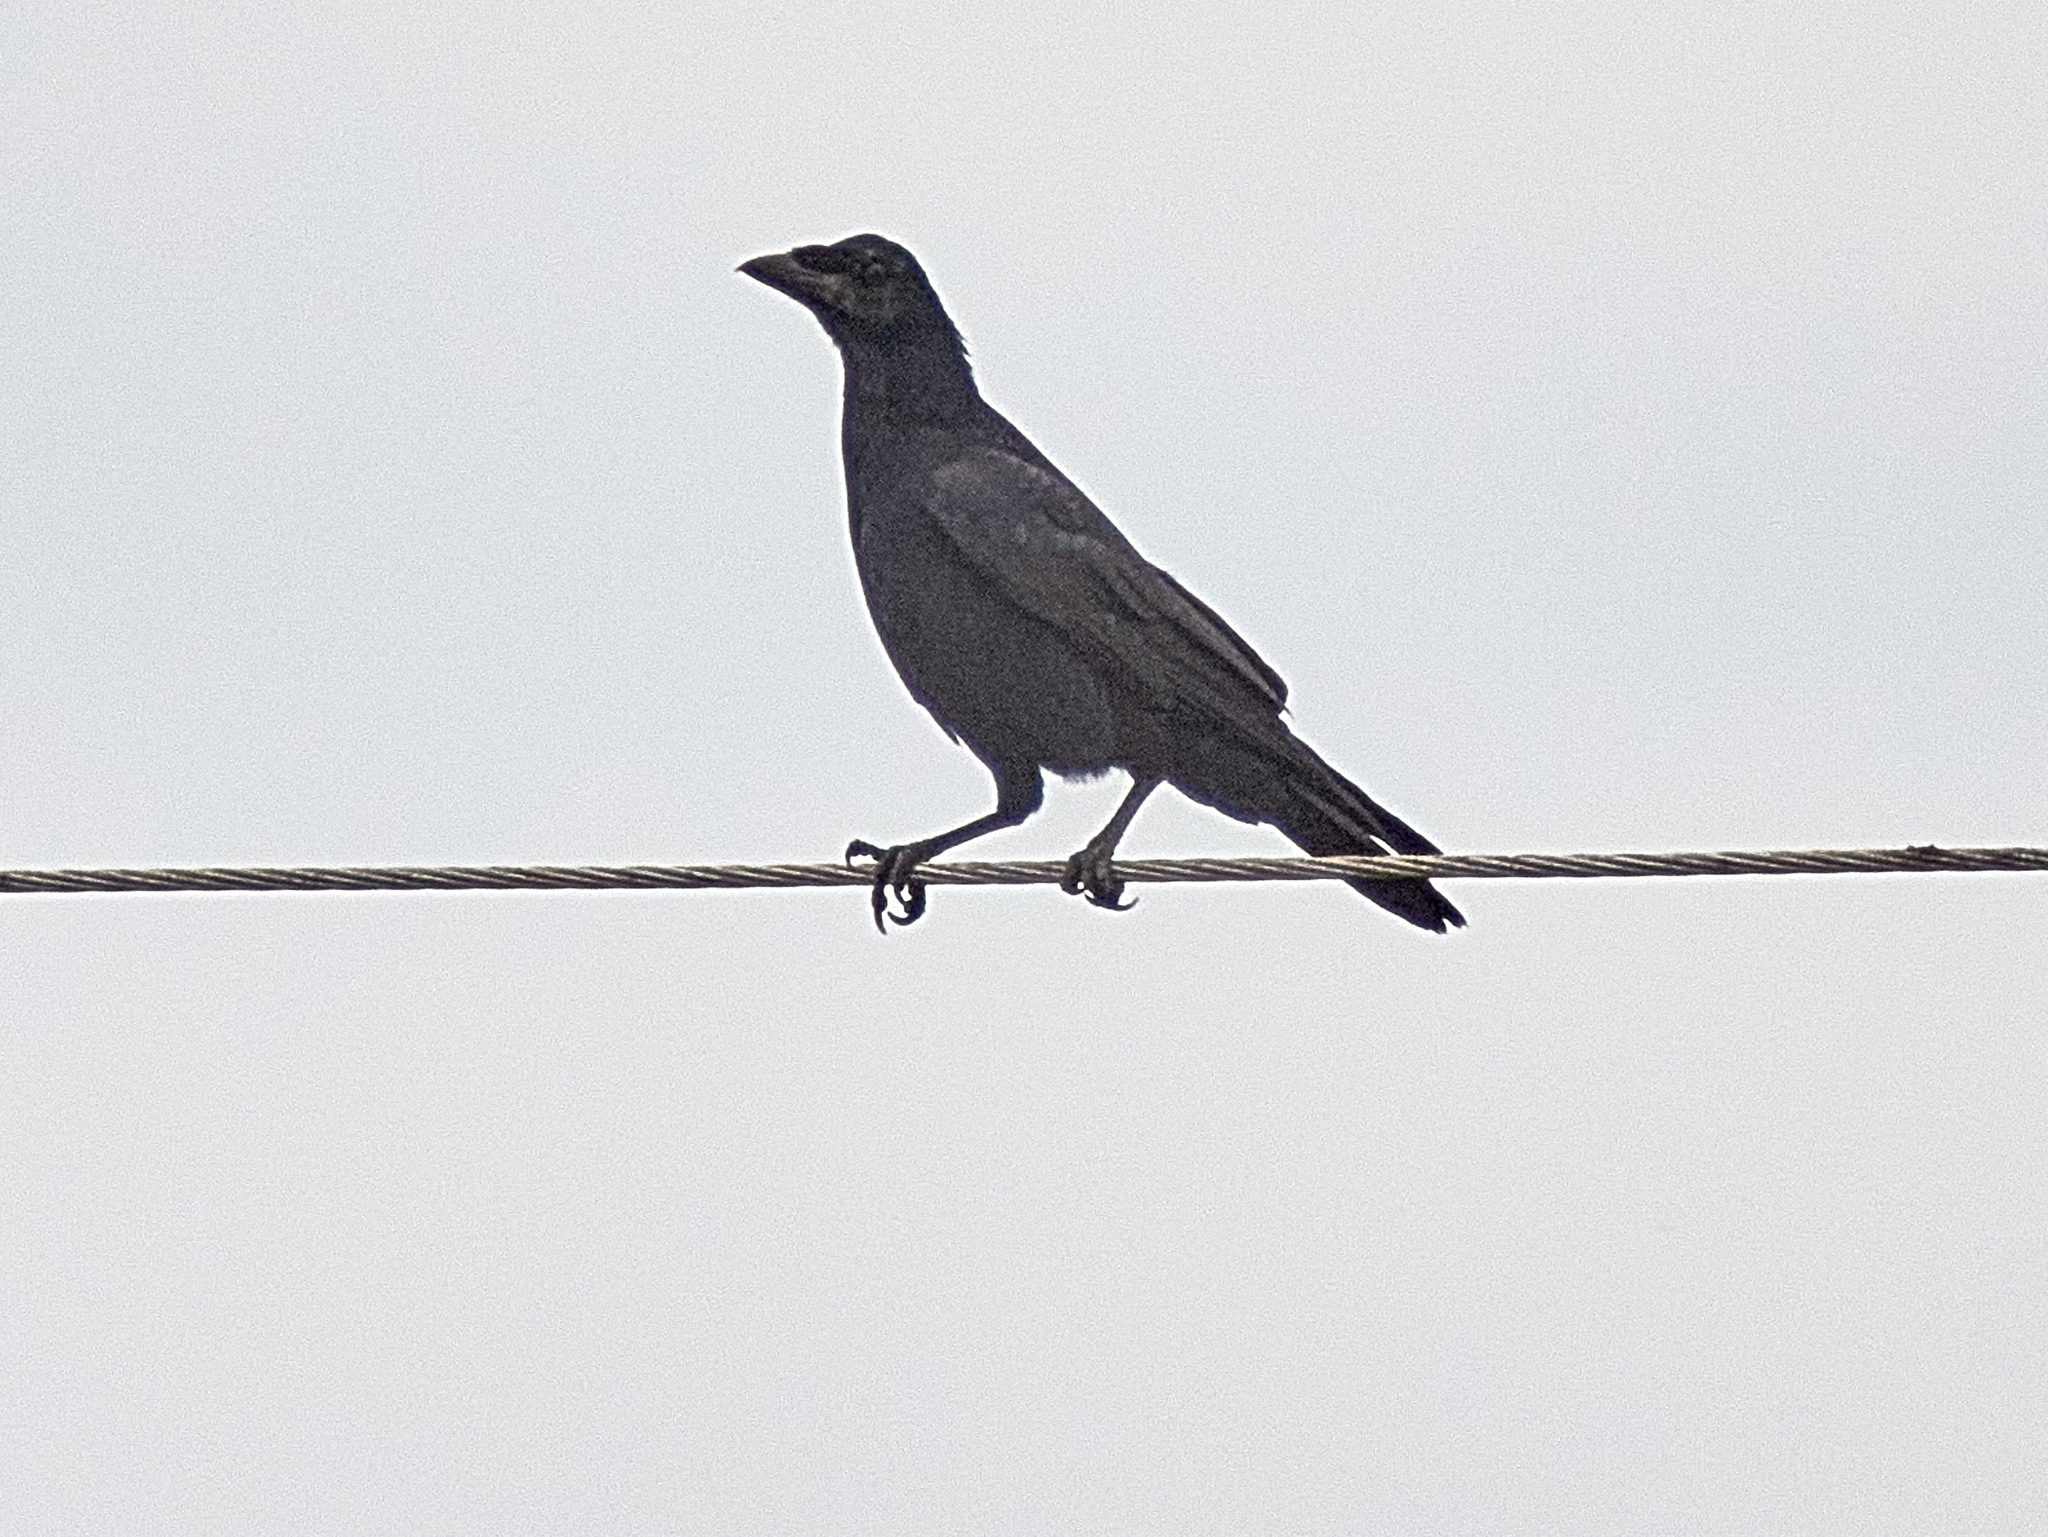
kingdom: Animalia
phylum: Chordata
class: Aves
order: Passeriformes
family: Corvidae
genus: Corvus
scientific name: Corvus frugilegus
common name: Rook
